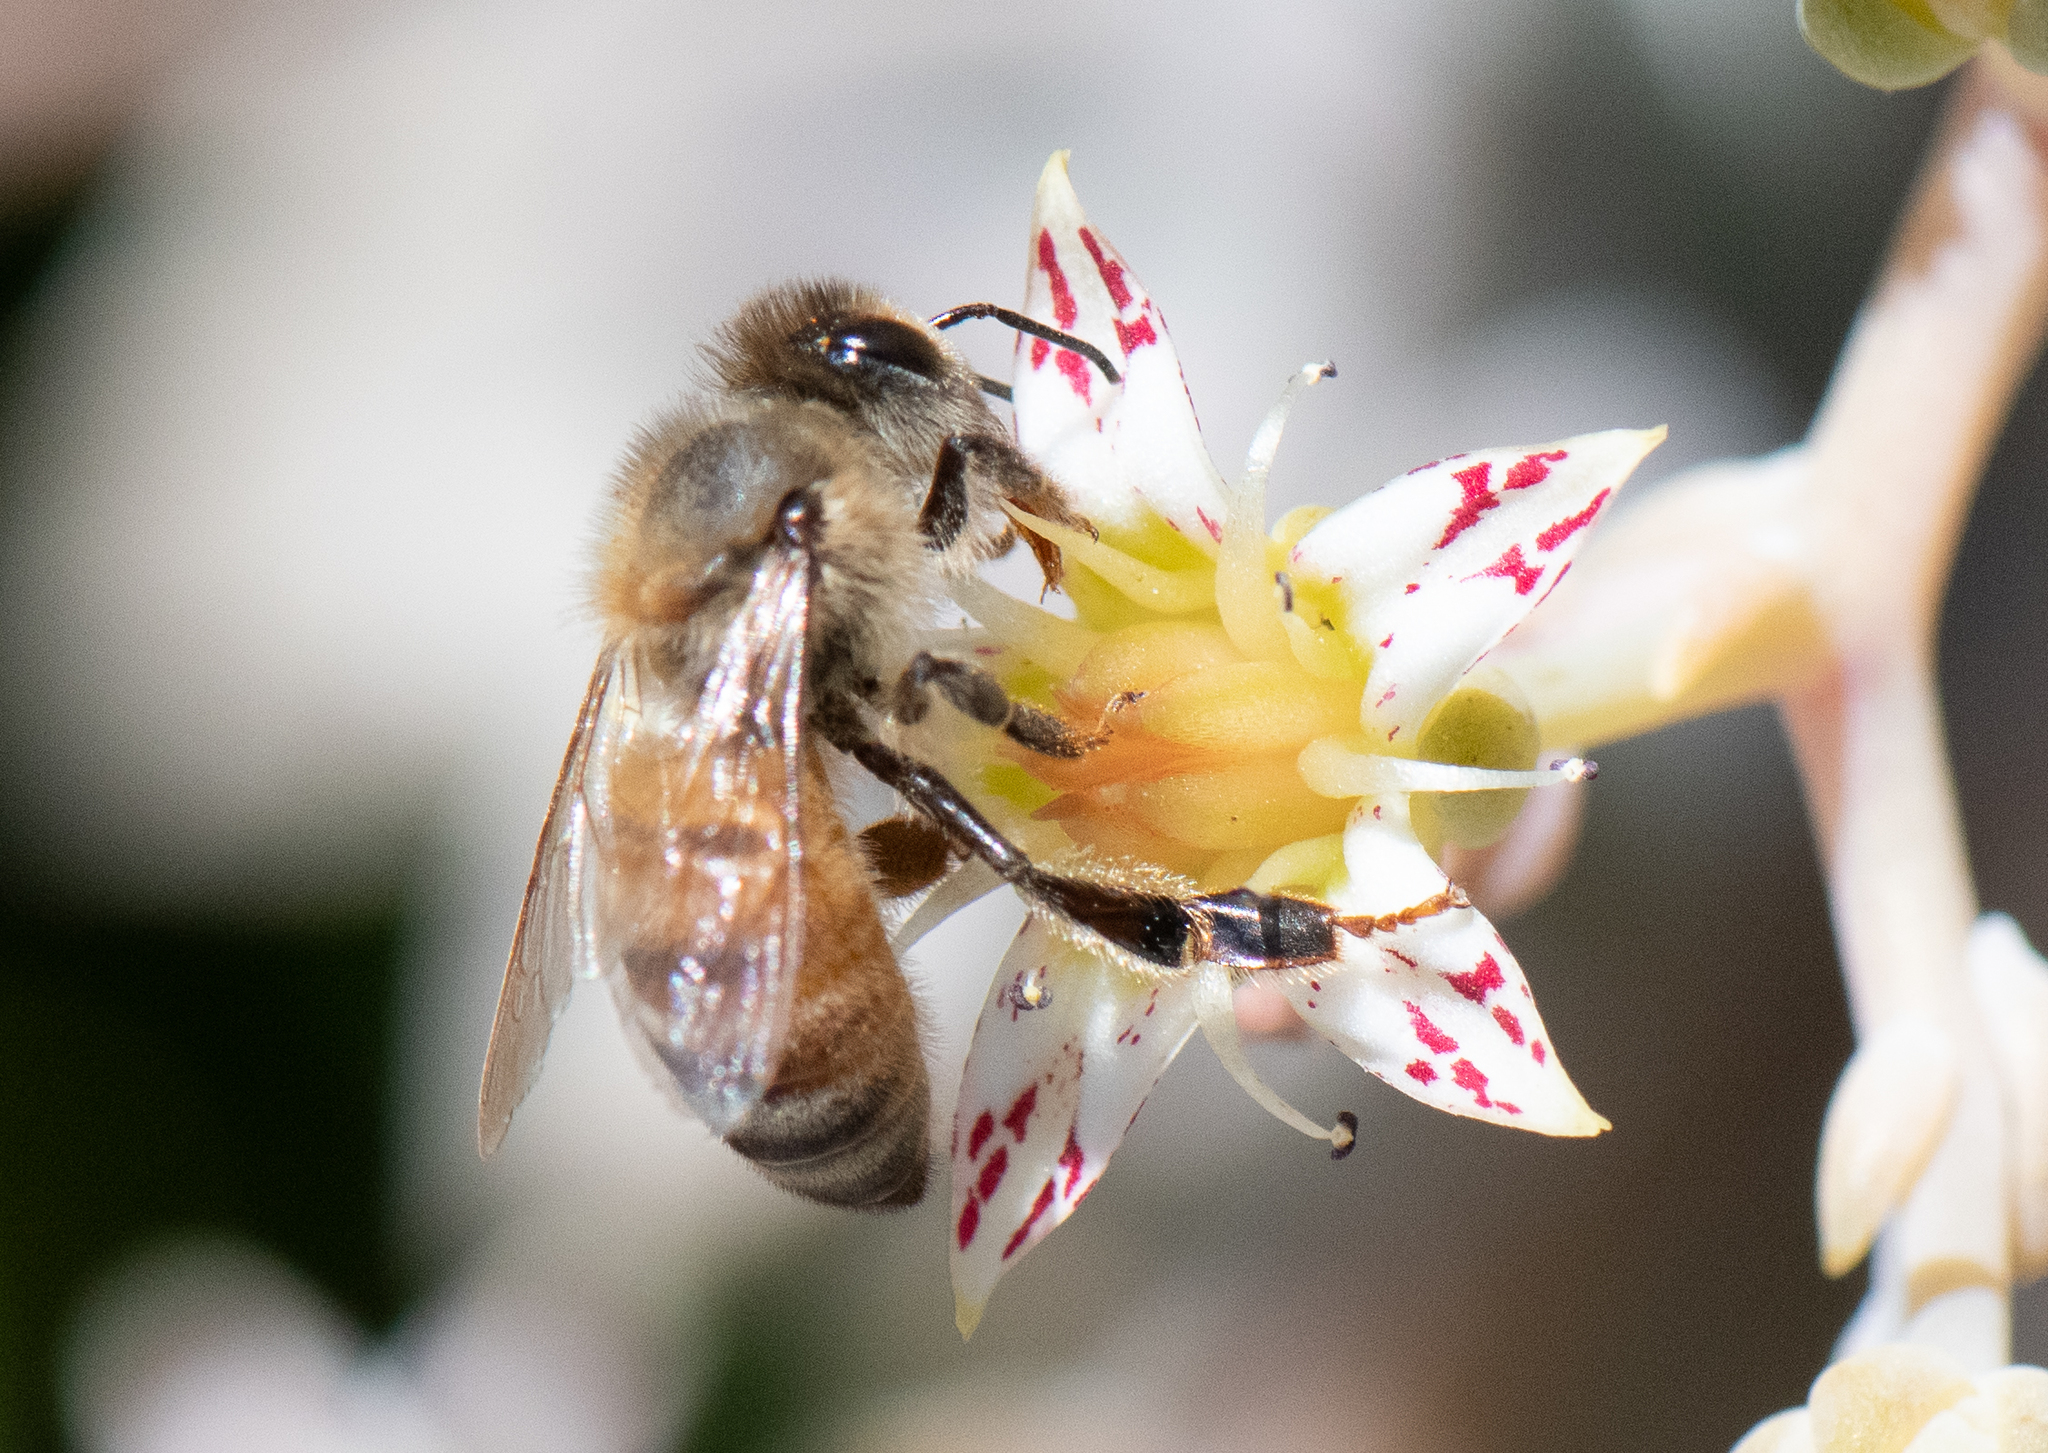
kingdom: Animalia
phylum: Arthropoda
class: Insecta
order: Hymenoptera
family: Apidae
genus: Apis
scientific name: Apis mellifera
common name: Honey bee
